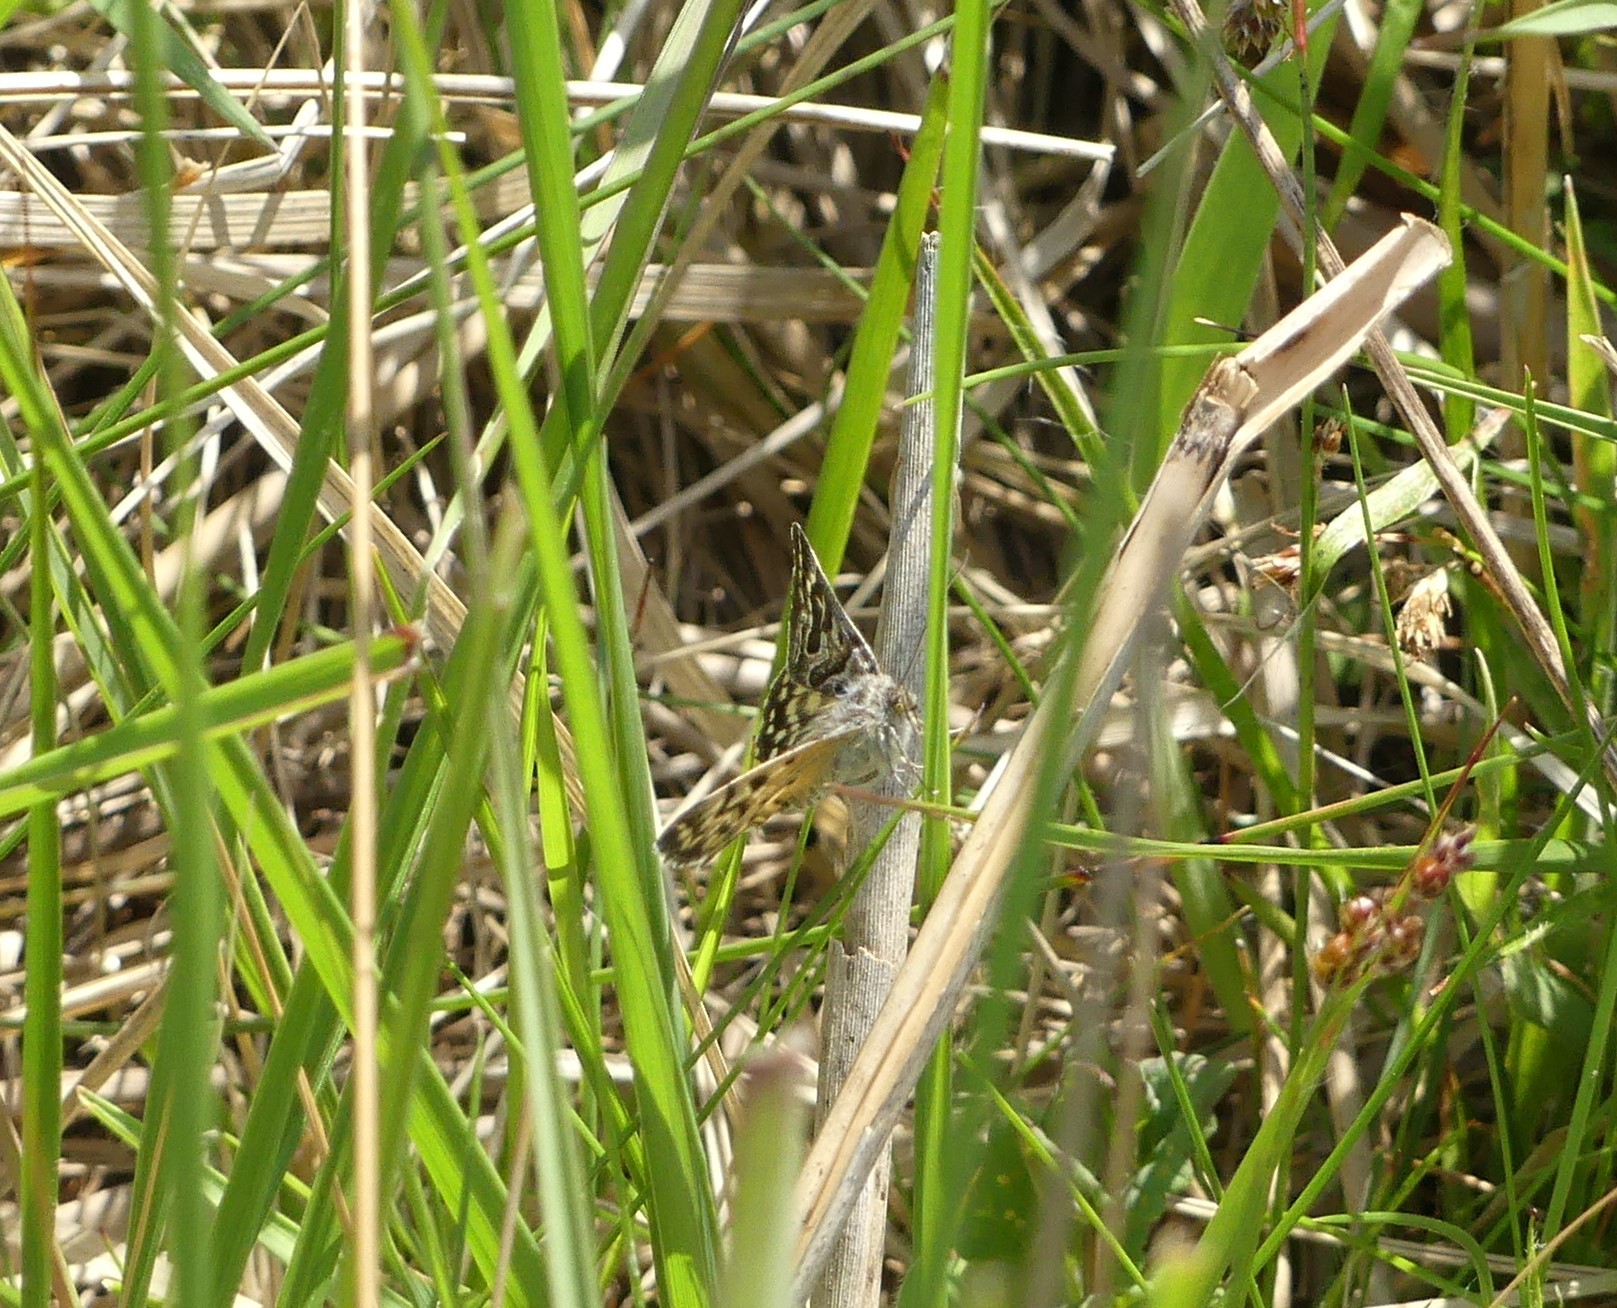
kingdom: Animalia
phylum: Arthropoda
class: Insecta
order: Lepidoptera
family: Erebidae
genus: Callistege
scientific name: Callistege mi
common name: Mother shipton
